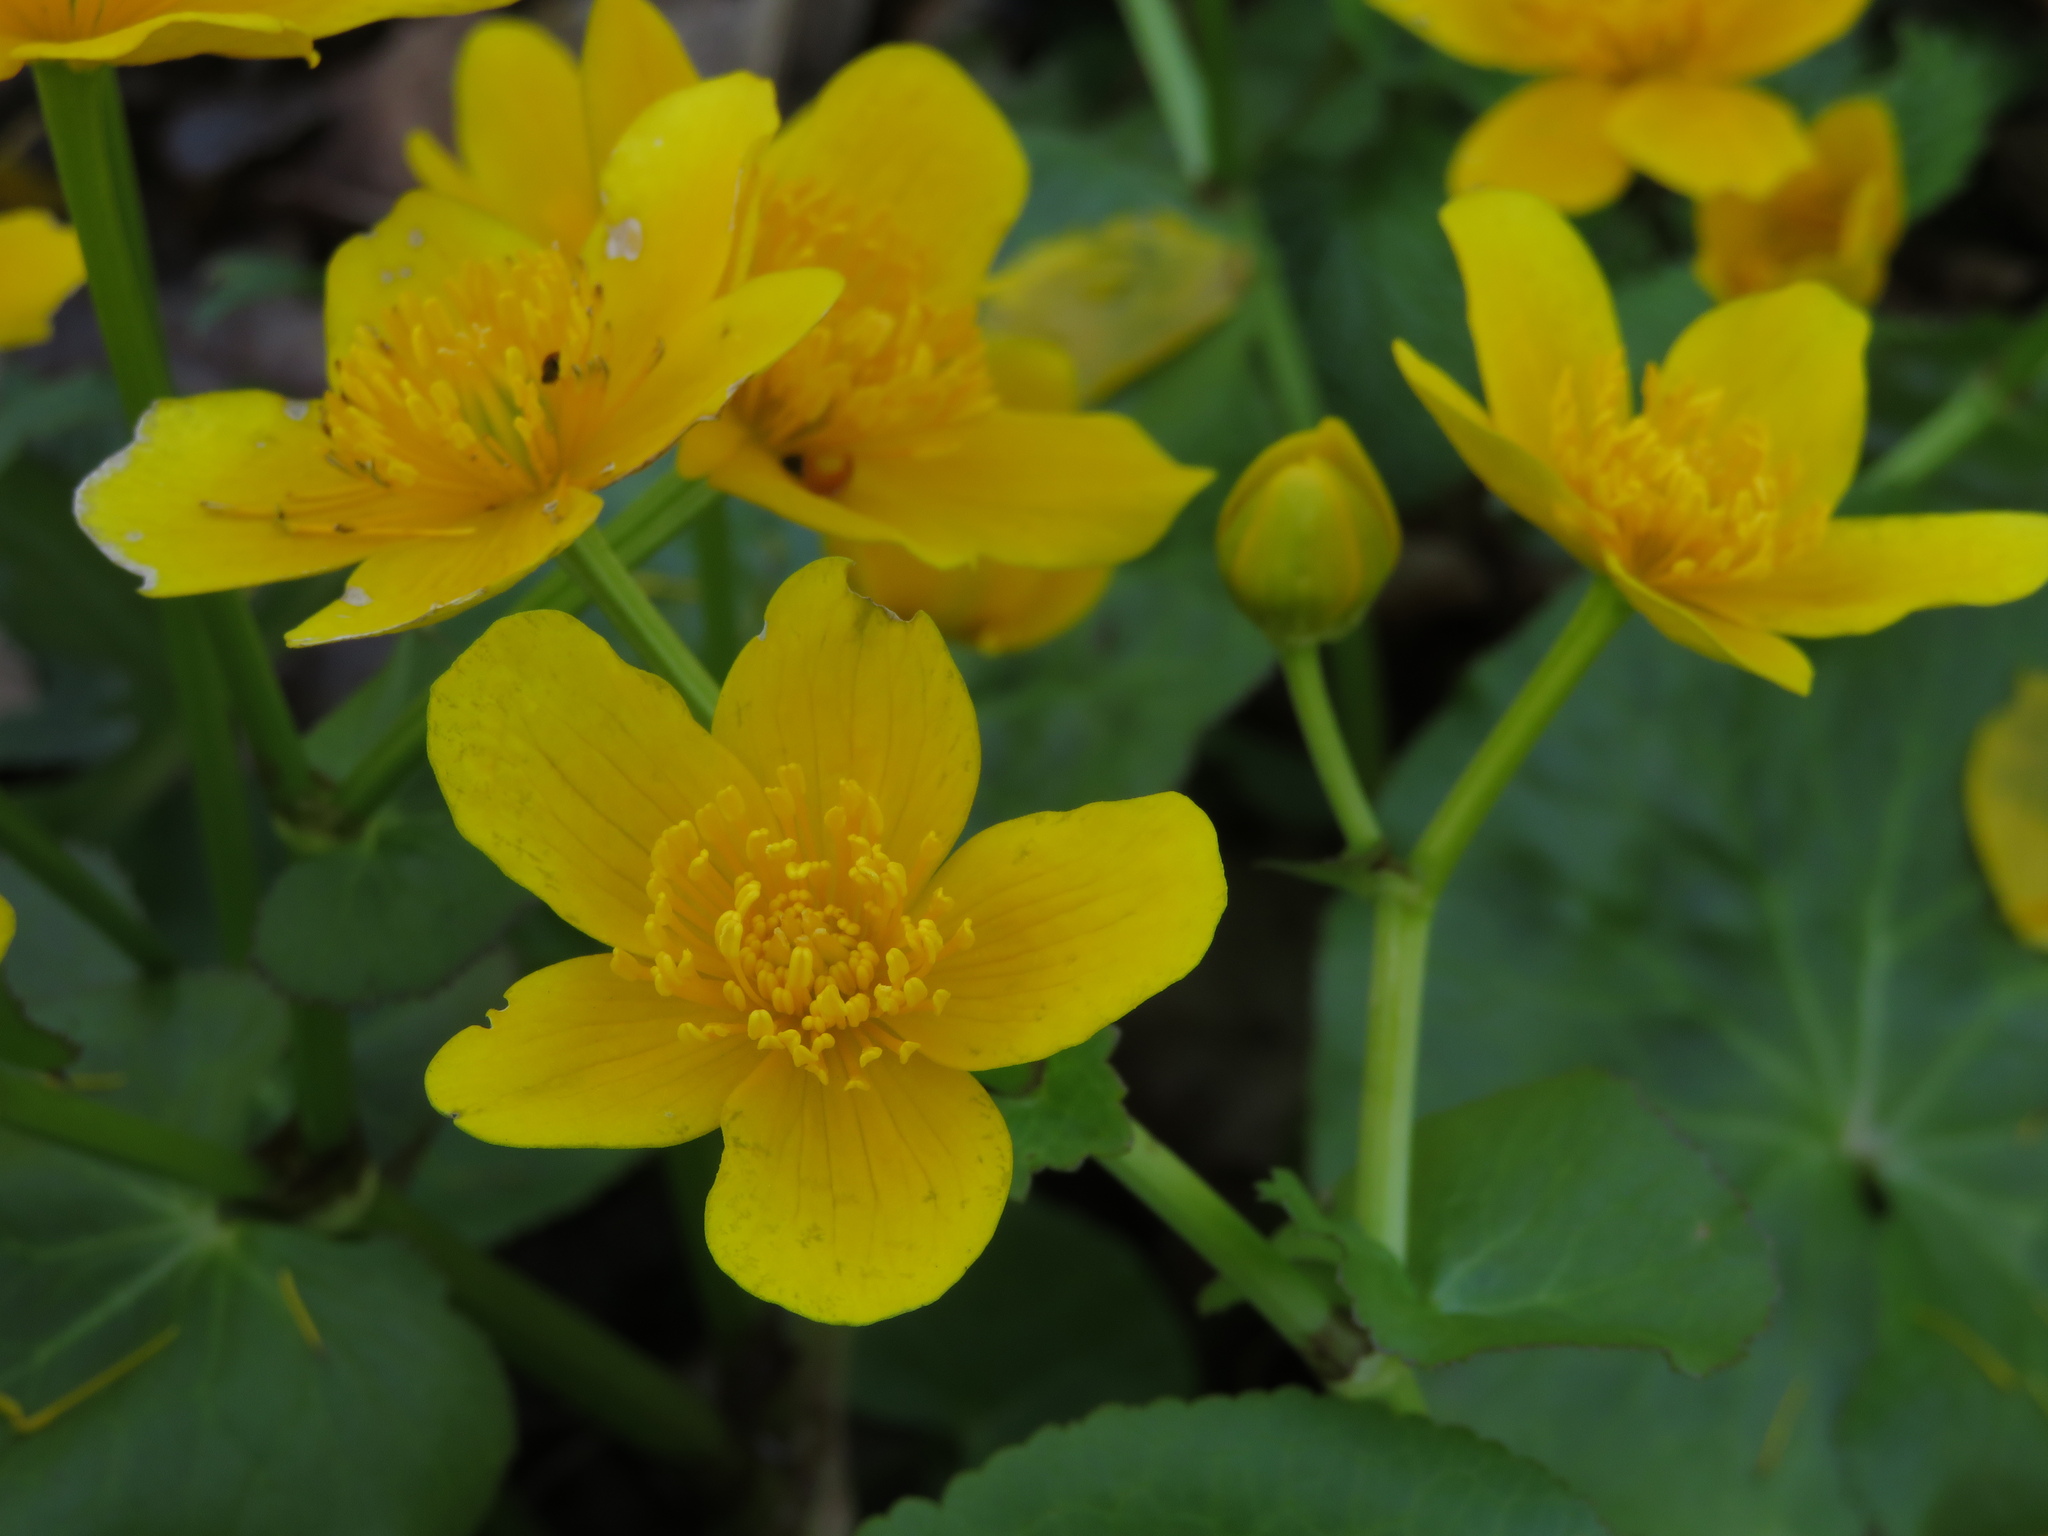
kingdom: Plantae
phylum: Tracheophyta
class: Magnoliopsida
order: Ranunculales
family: Ranunculaceae
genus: Caltha
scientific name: Caltha palustris
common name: Marsh marigold
